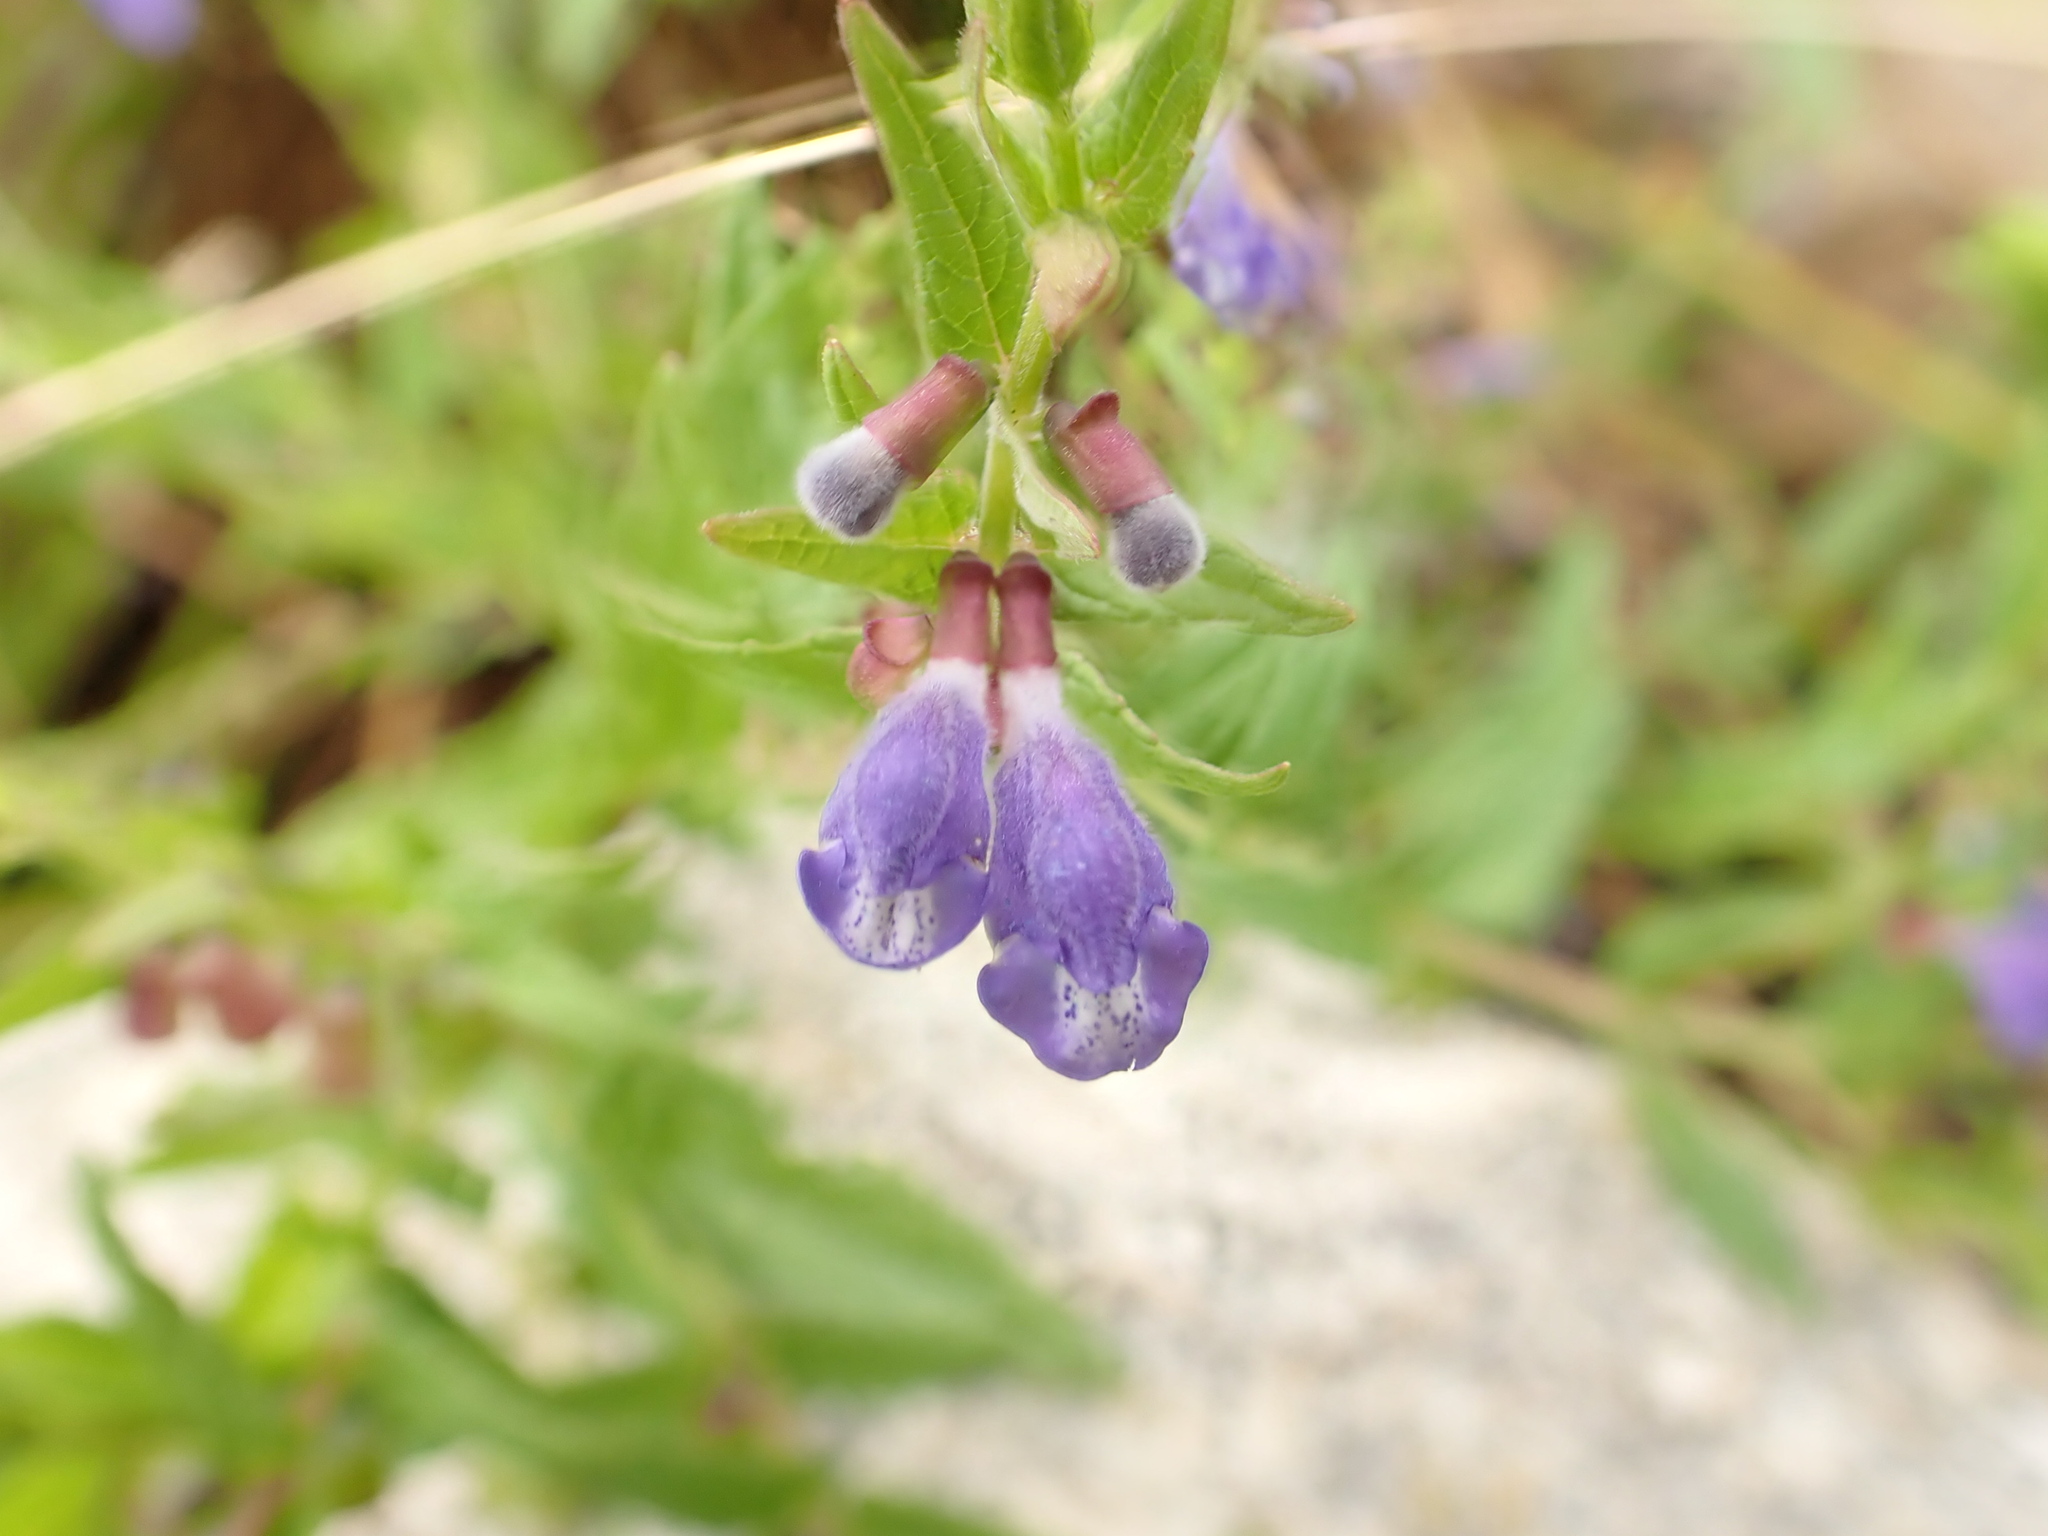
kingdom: Plantae
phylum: Tracheophyta
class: Magnoliopsida
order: Lamiales
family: Lamiaceae
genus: Scutellaria
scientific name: Scutellaria galericulata
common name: Skullcap
